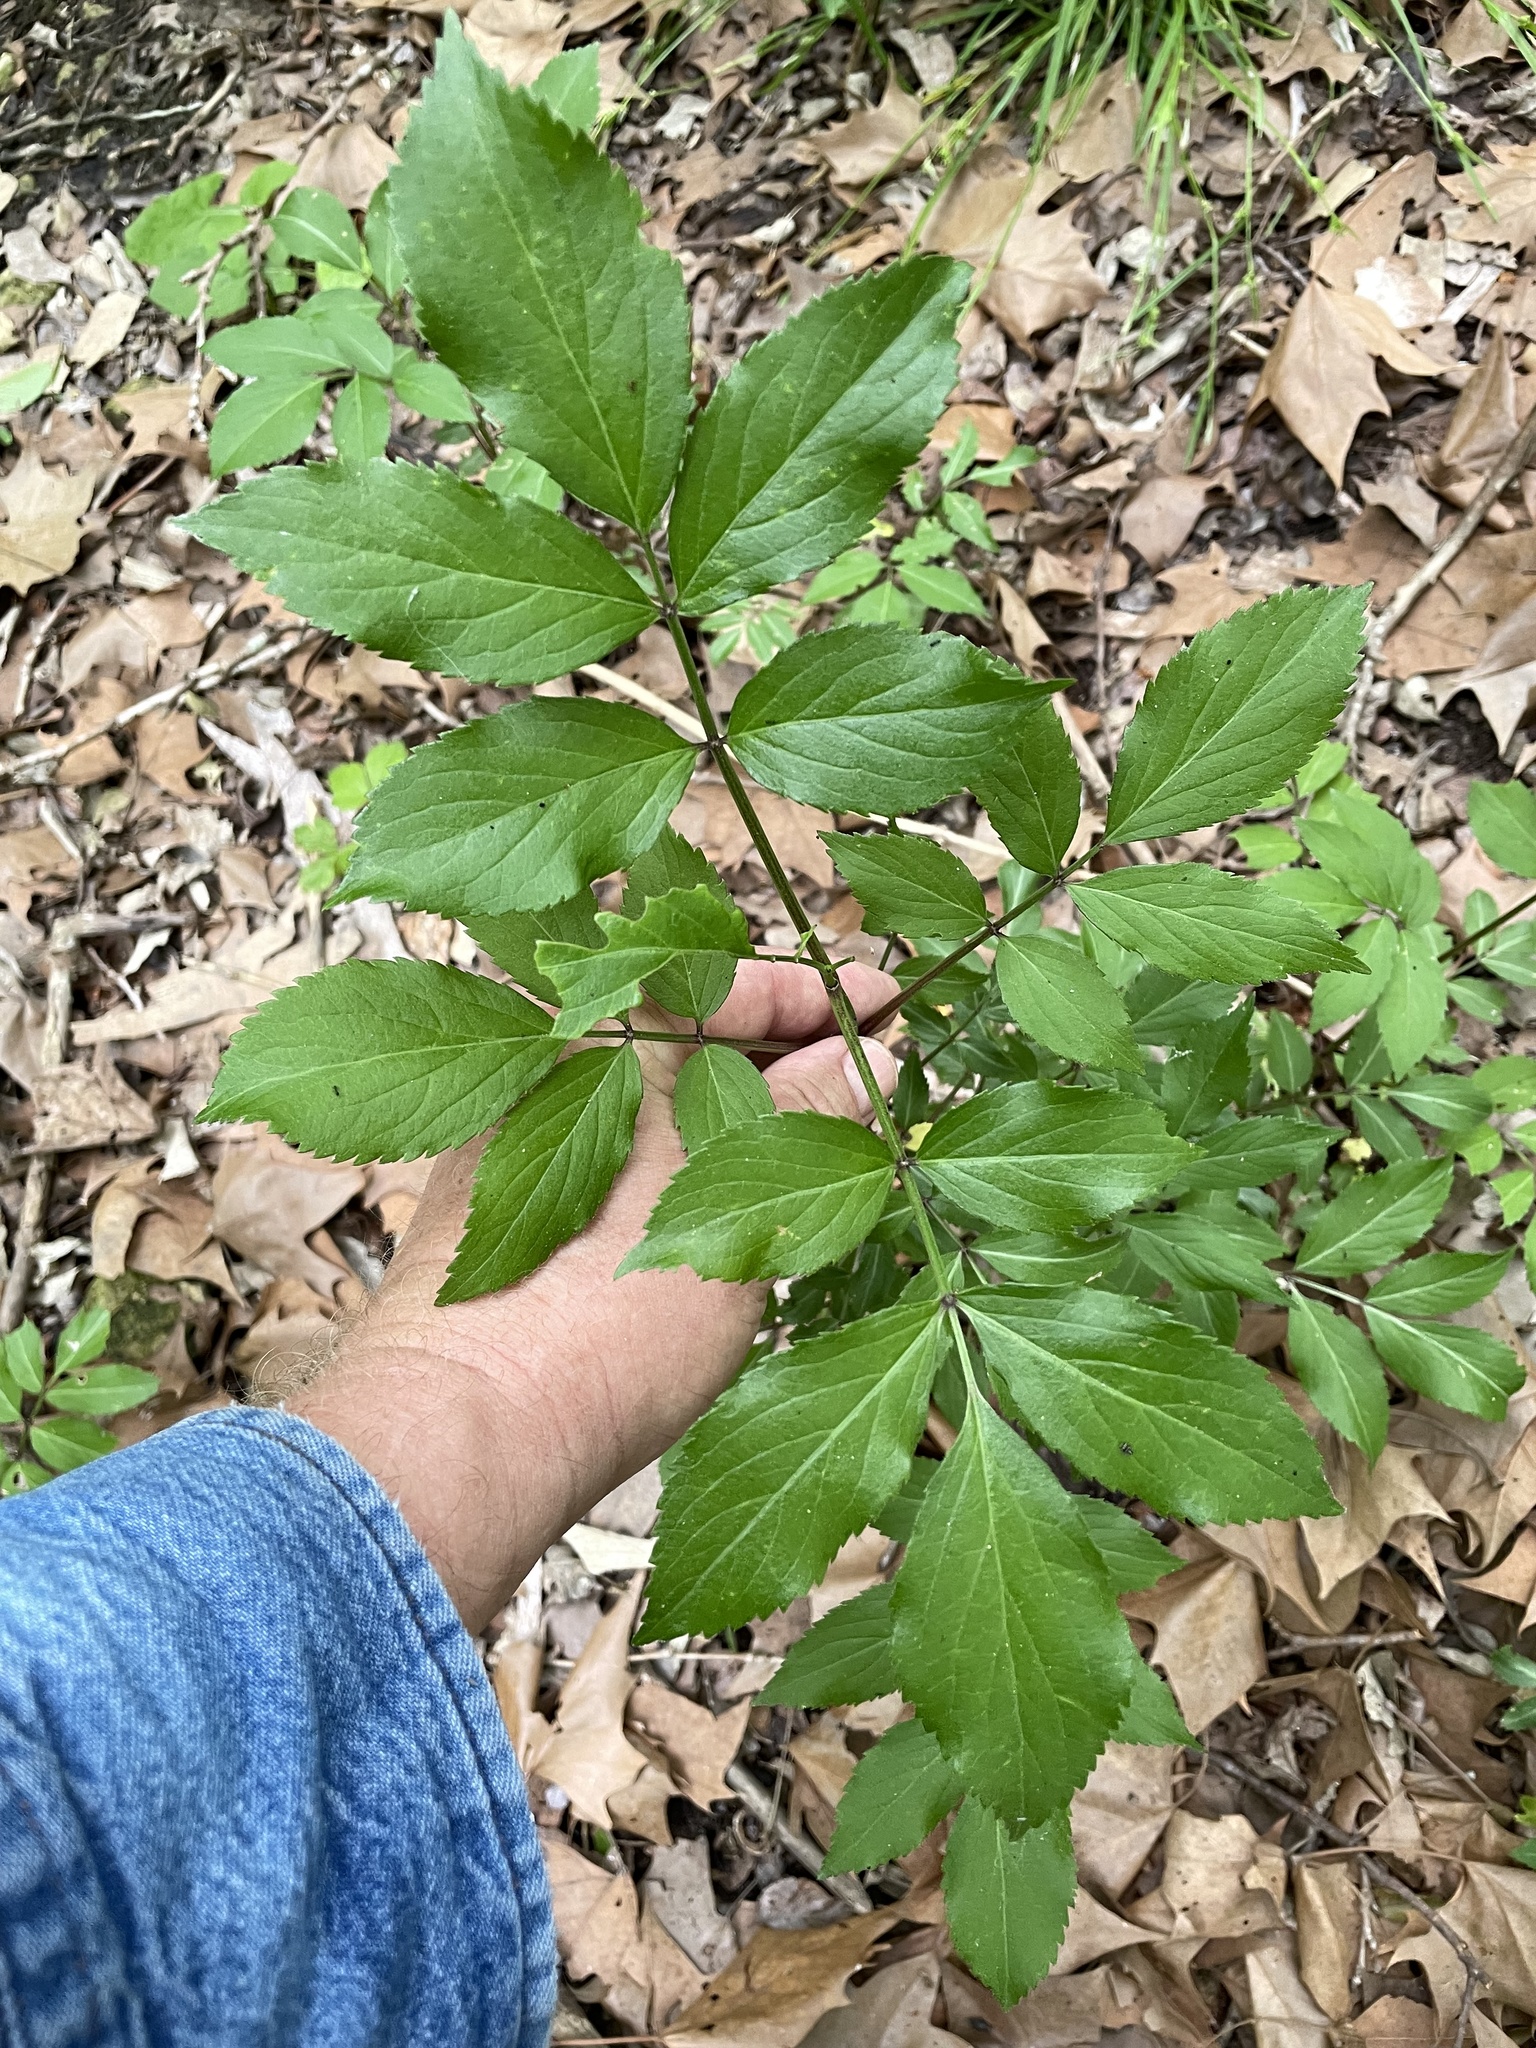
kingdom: Plantae
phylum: Tracheophyta
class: Magnoliopsida
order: Dipsacales
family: Viburnaceae
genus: Sambucus
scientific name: Sambucus canadensis
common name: American elder
